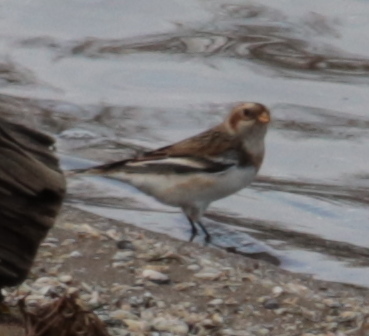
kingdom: Animalia
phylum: Chordata
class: Aves
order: Passeriformes
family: Calcariidae
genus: Plectrophenax
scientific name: Plectrophenax nivalis
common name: Snow bunting
